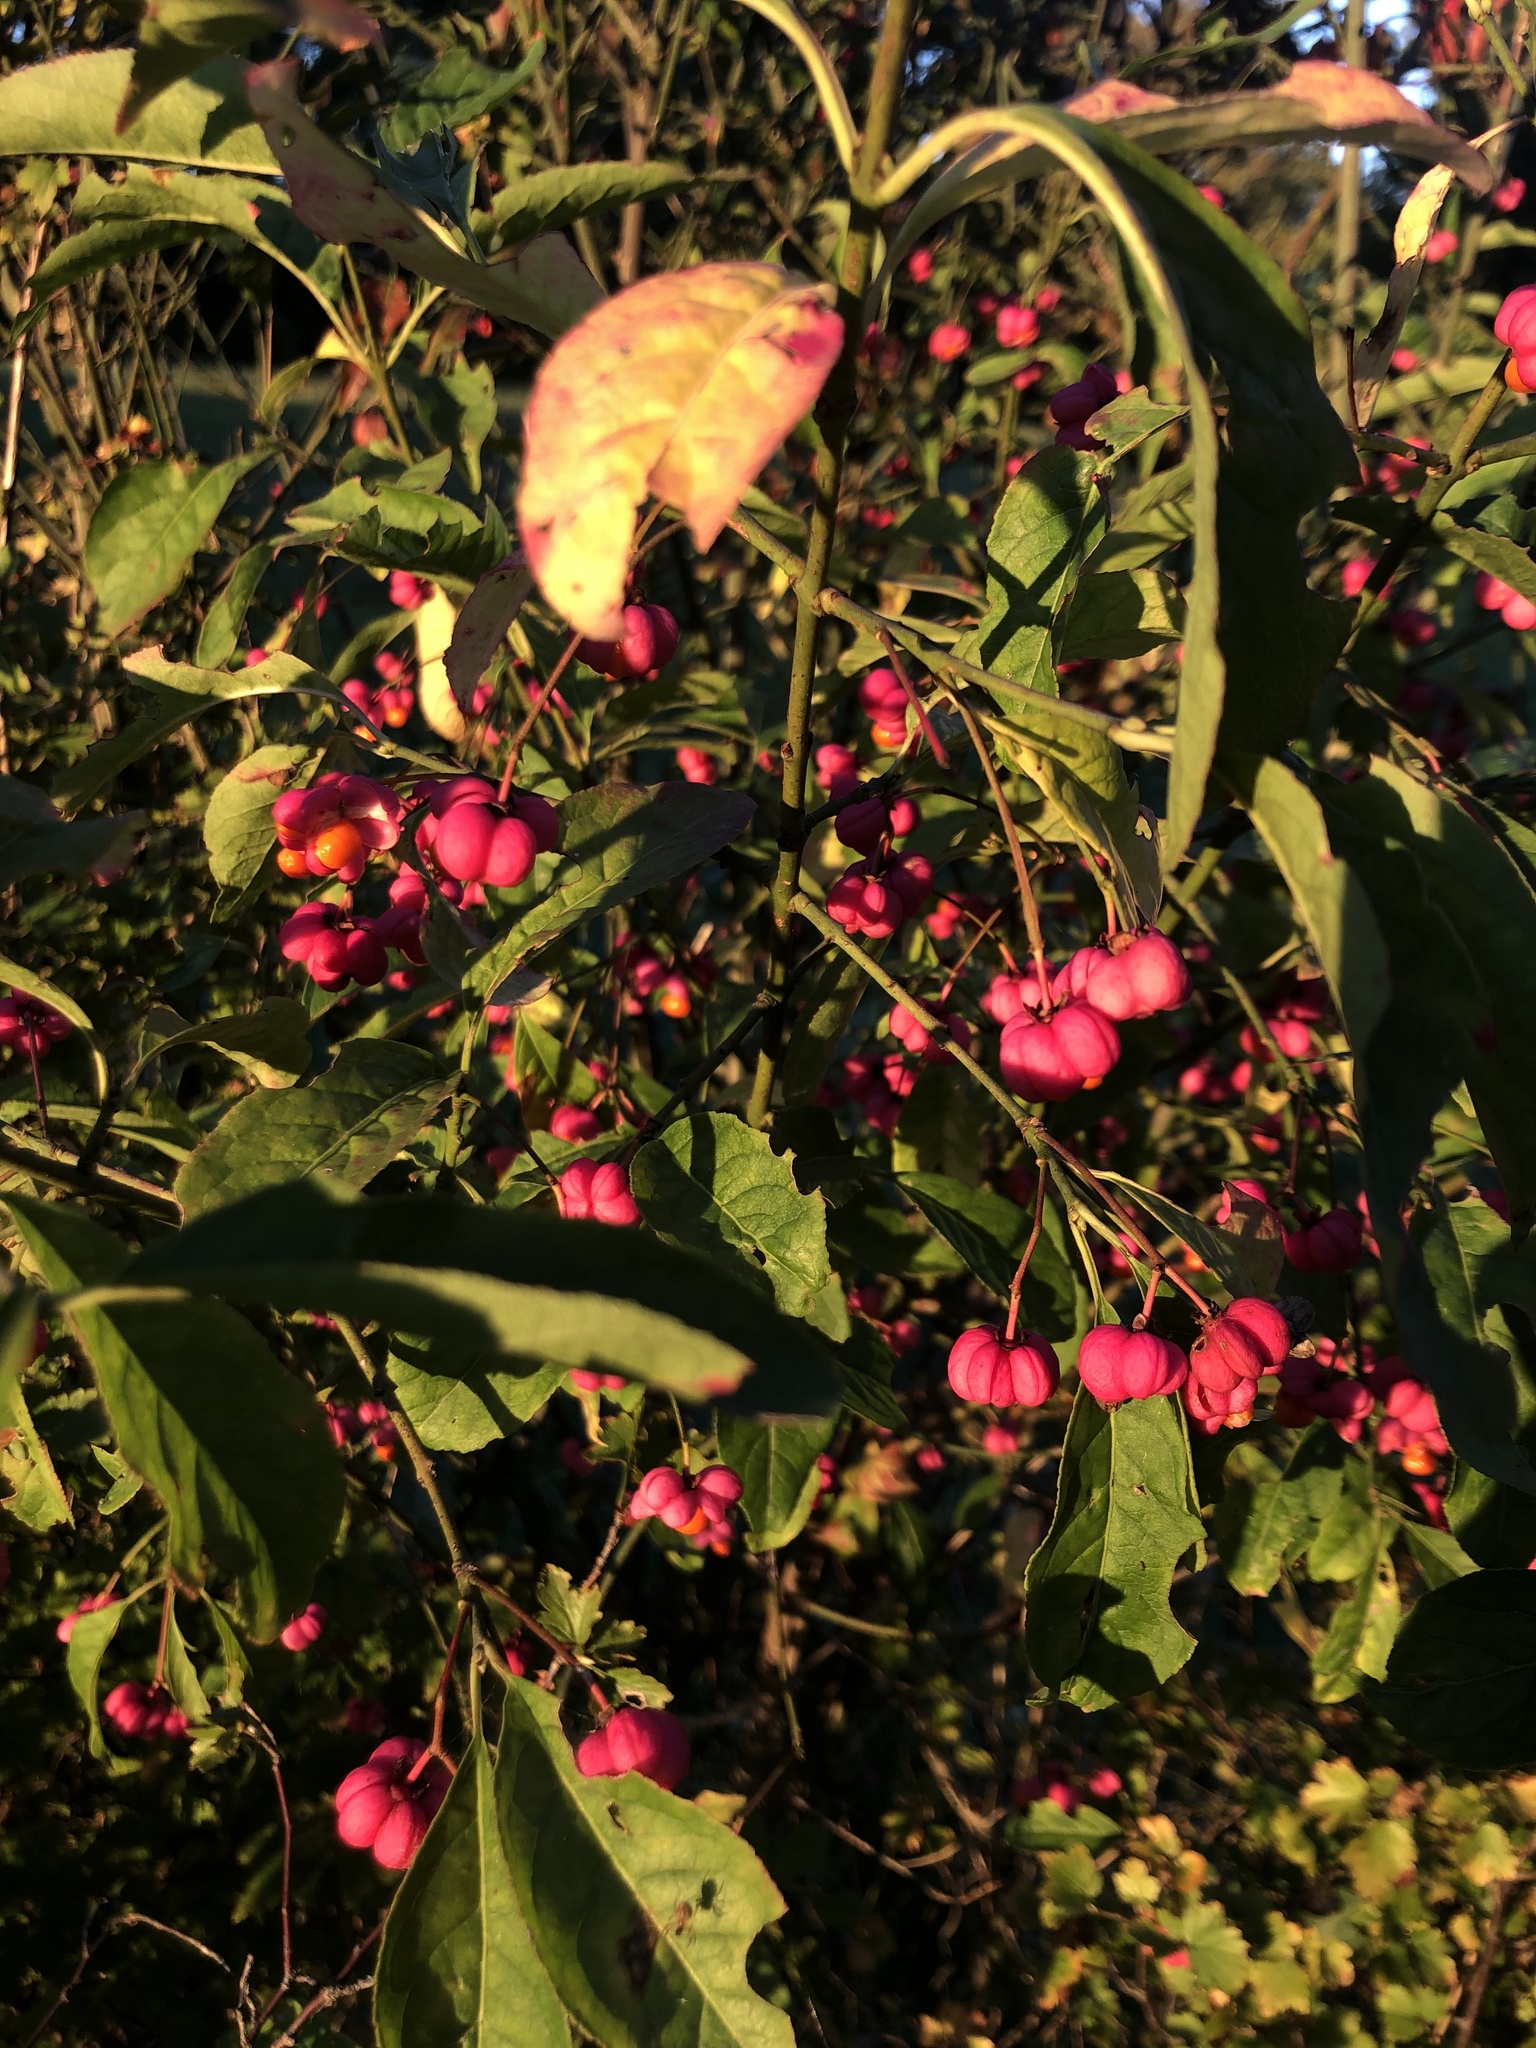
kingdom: Plantae
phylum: Tracheophyta
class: Magnoliopsida
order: Celastrales
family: Celastraceae
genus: Euonymus
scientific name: Euonymus europaeus
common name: Spindle
